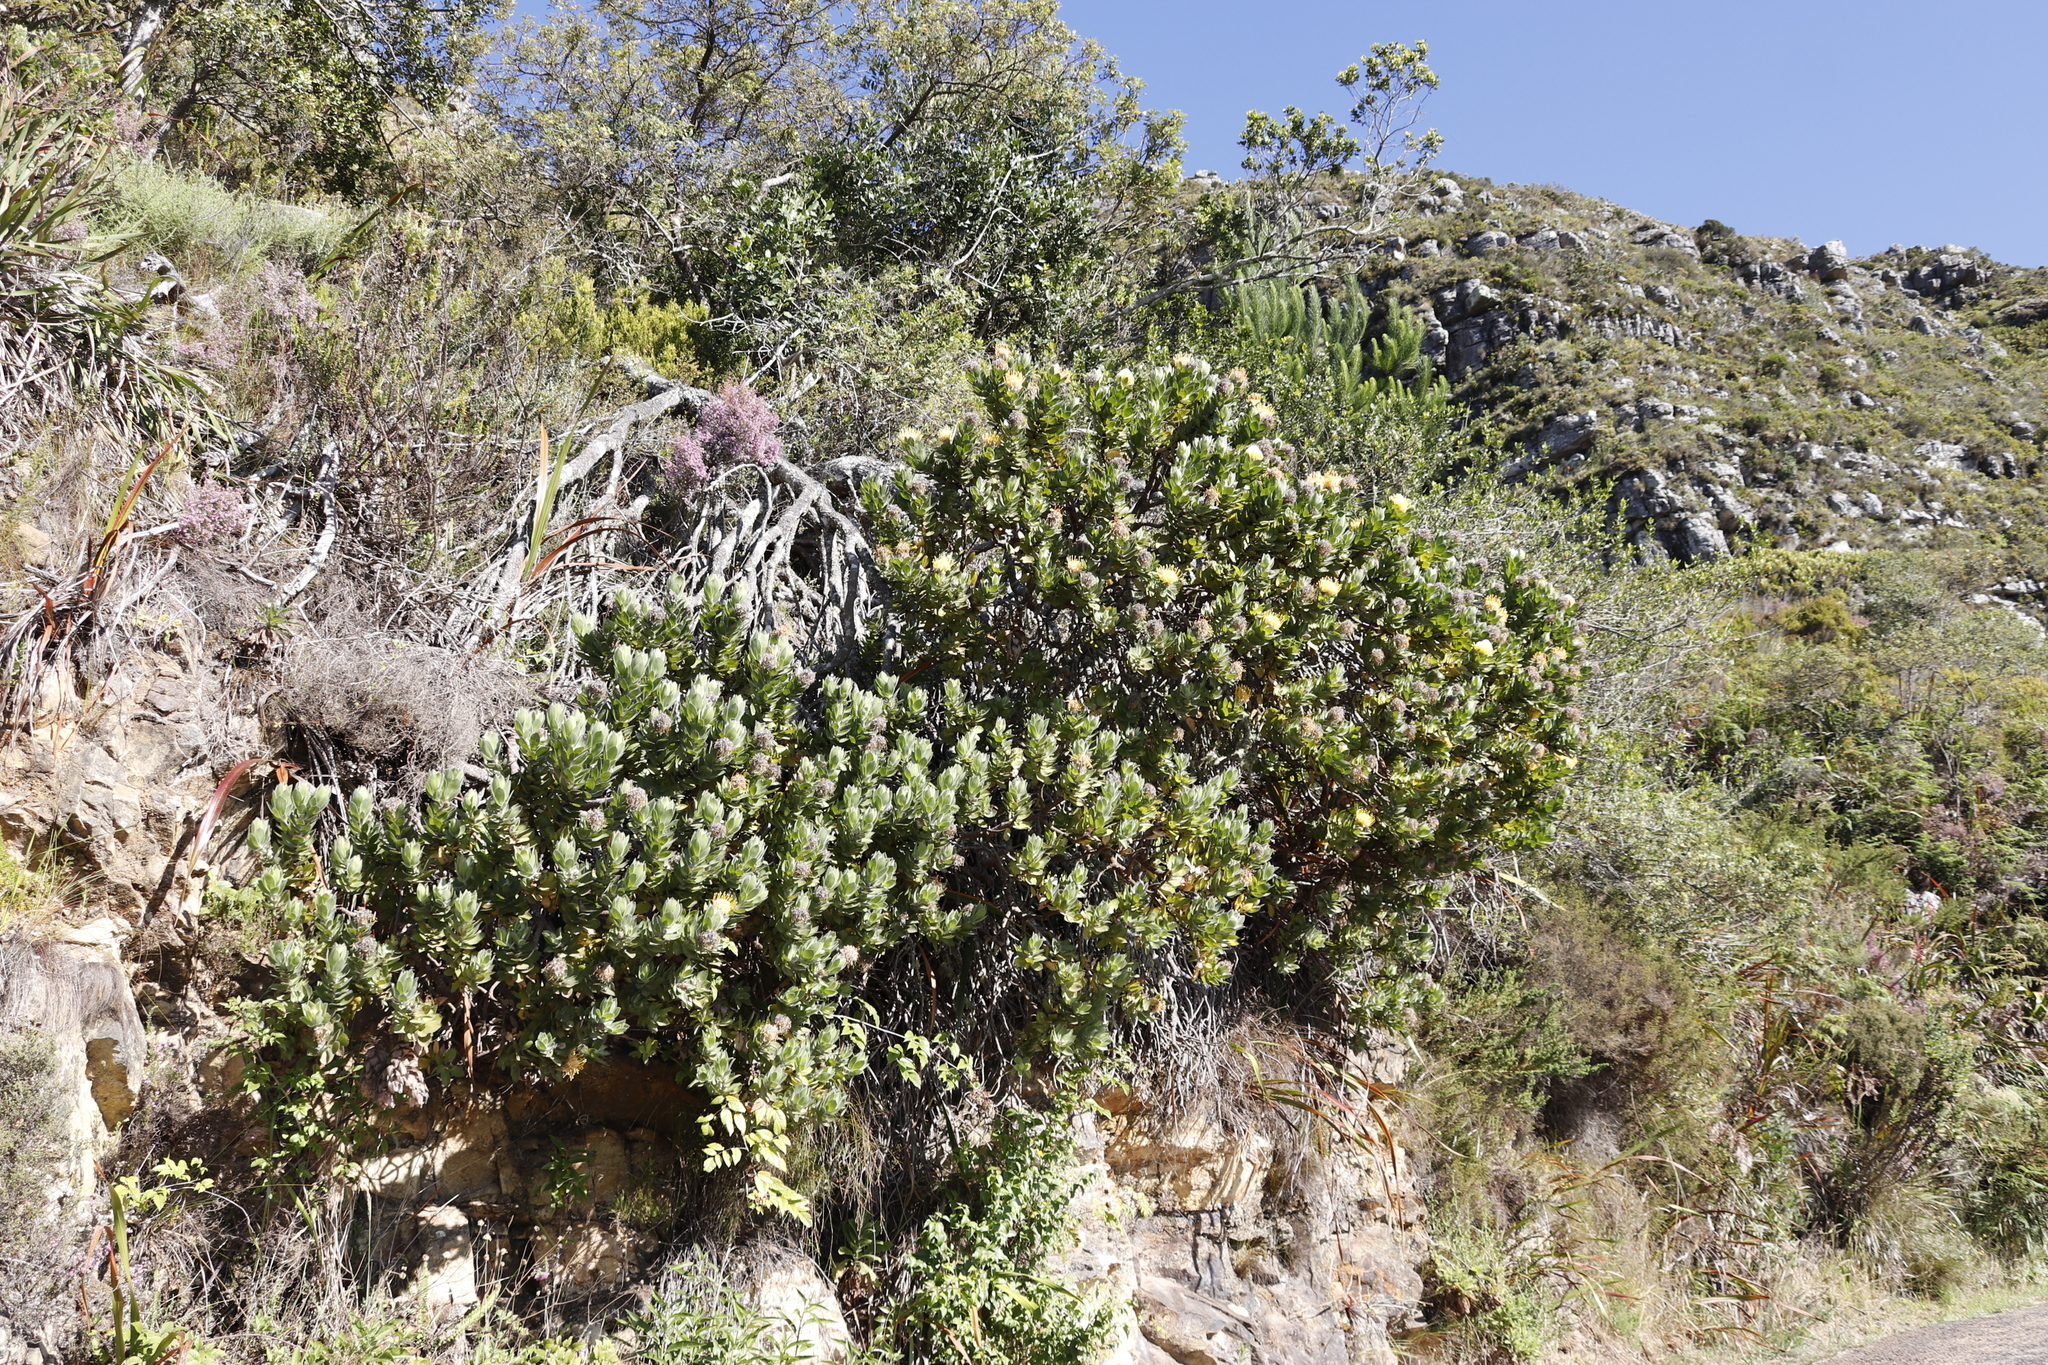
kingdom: Plantae
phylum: Tracheophyta
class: Magnoliopsida
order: Proteales
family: Proteaceae
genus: Leucospermum
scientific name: Leucospermum conocarpodendron
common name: Tree pincushion
